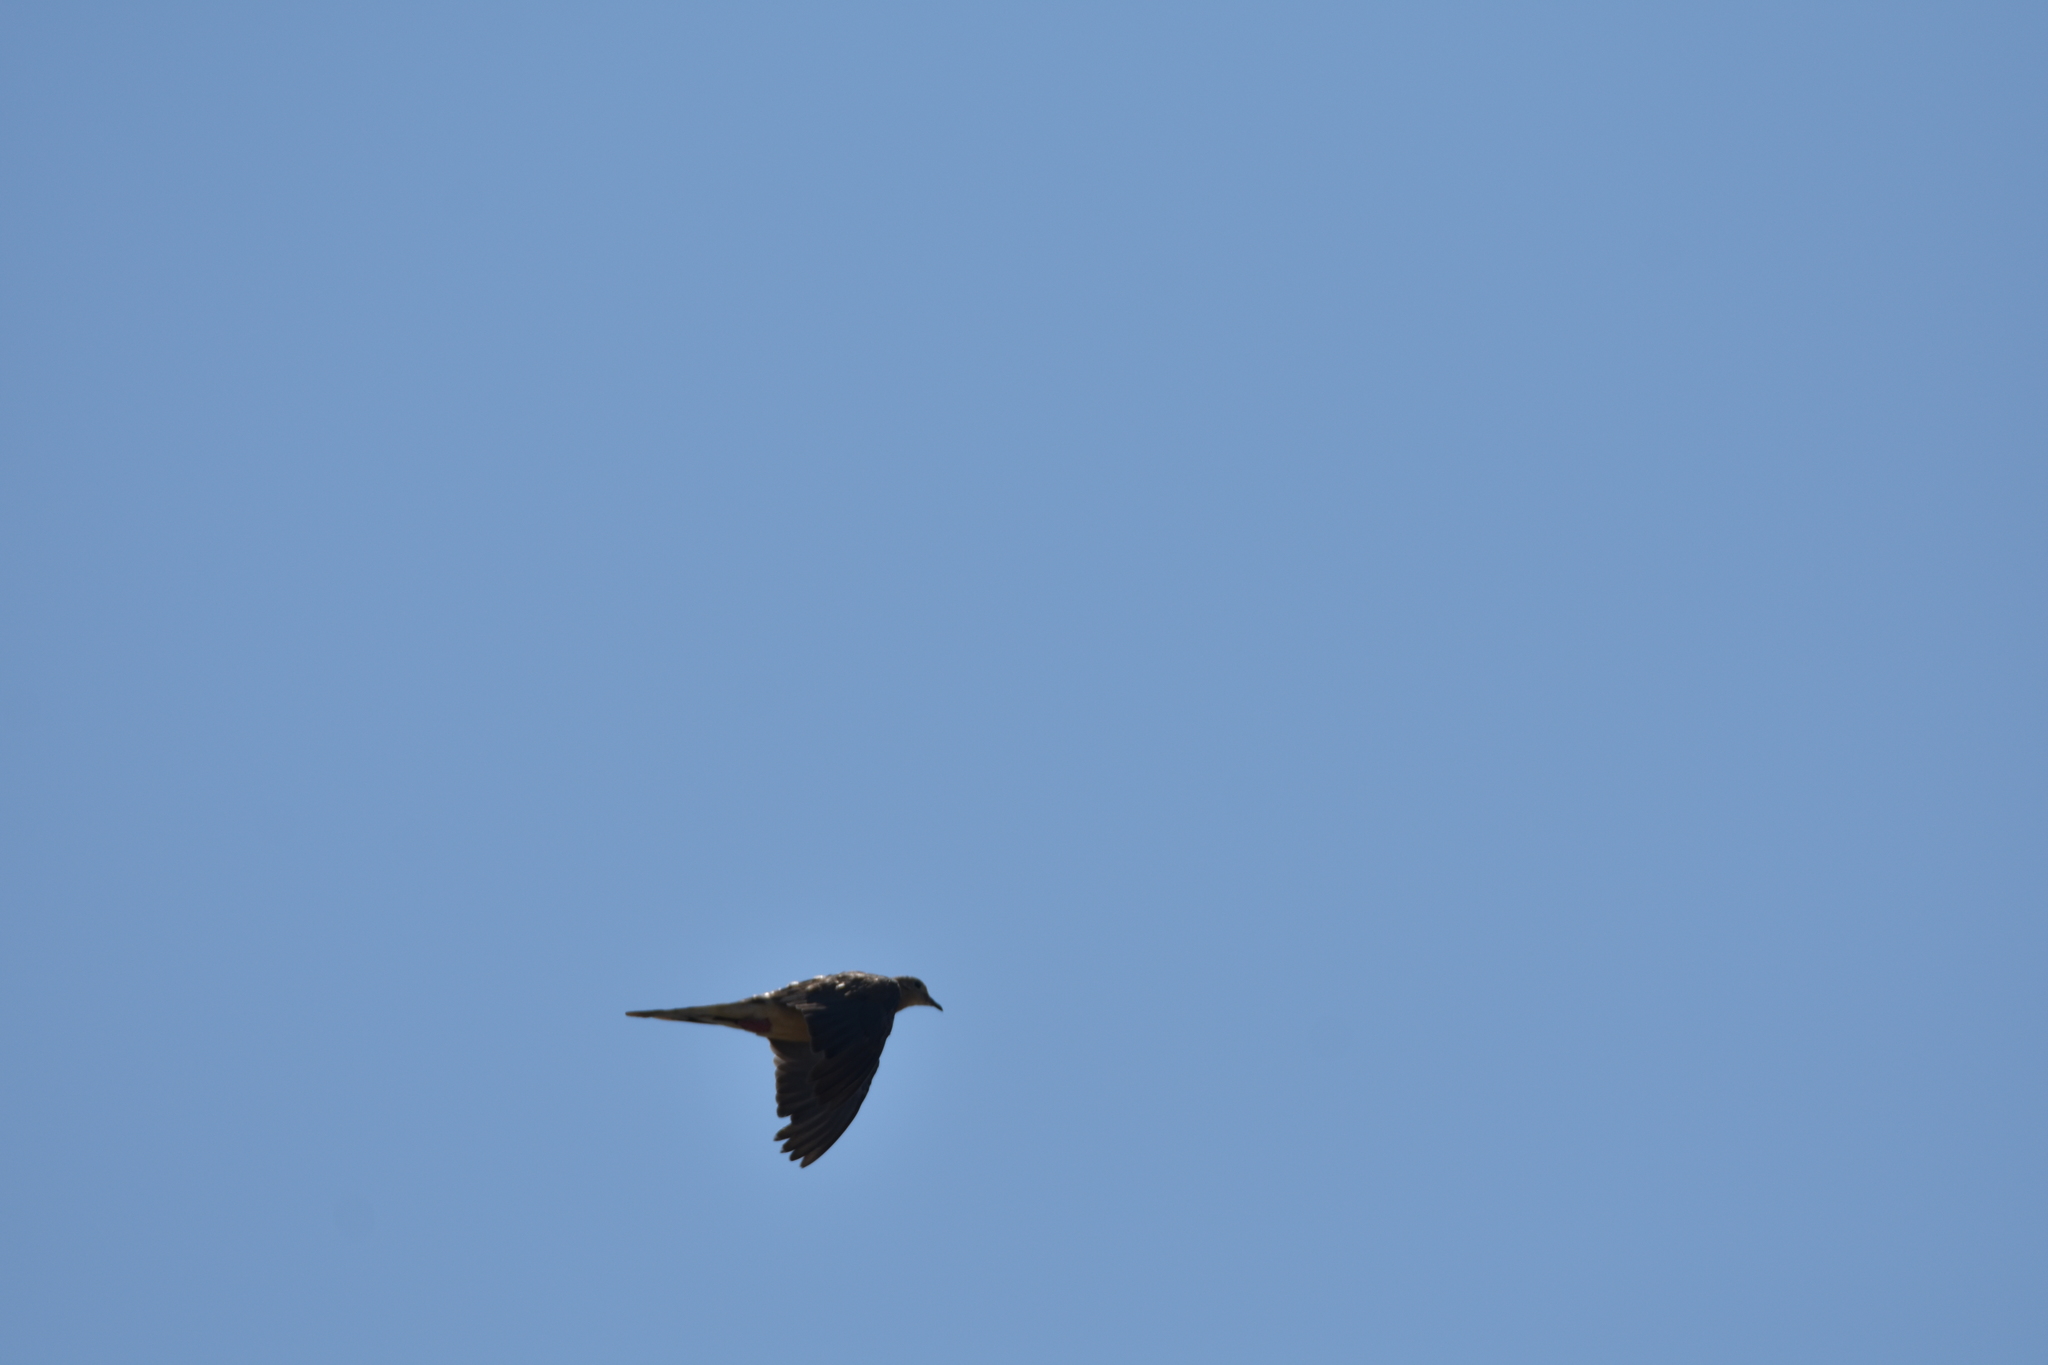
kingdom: Animalia
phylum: Chordata
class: Aves
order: Columbiformes
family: Columbidae
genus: Zenaida
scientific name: Zenaida macroura
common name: Mourning dove
